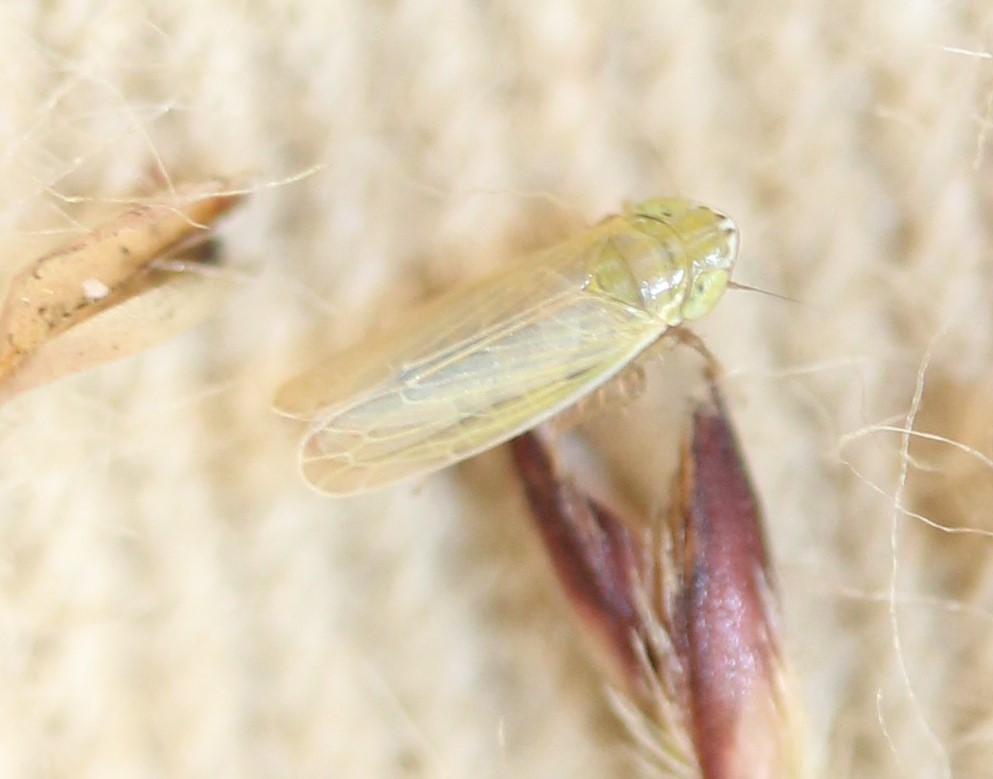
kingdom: Animalia
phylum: Arthropoda
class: Insecta
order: Hemiptera
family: Cicadellidae
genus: Arthaldeus
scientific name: Arthaldeus pascuellus
